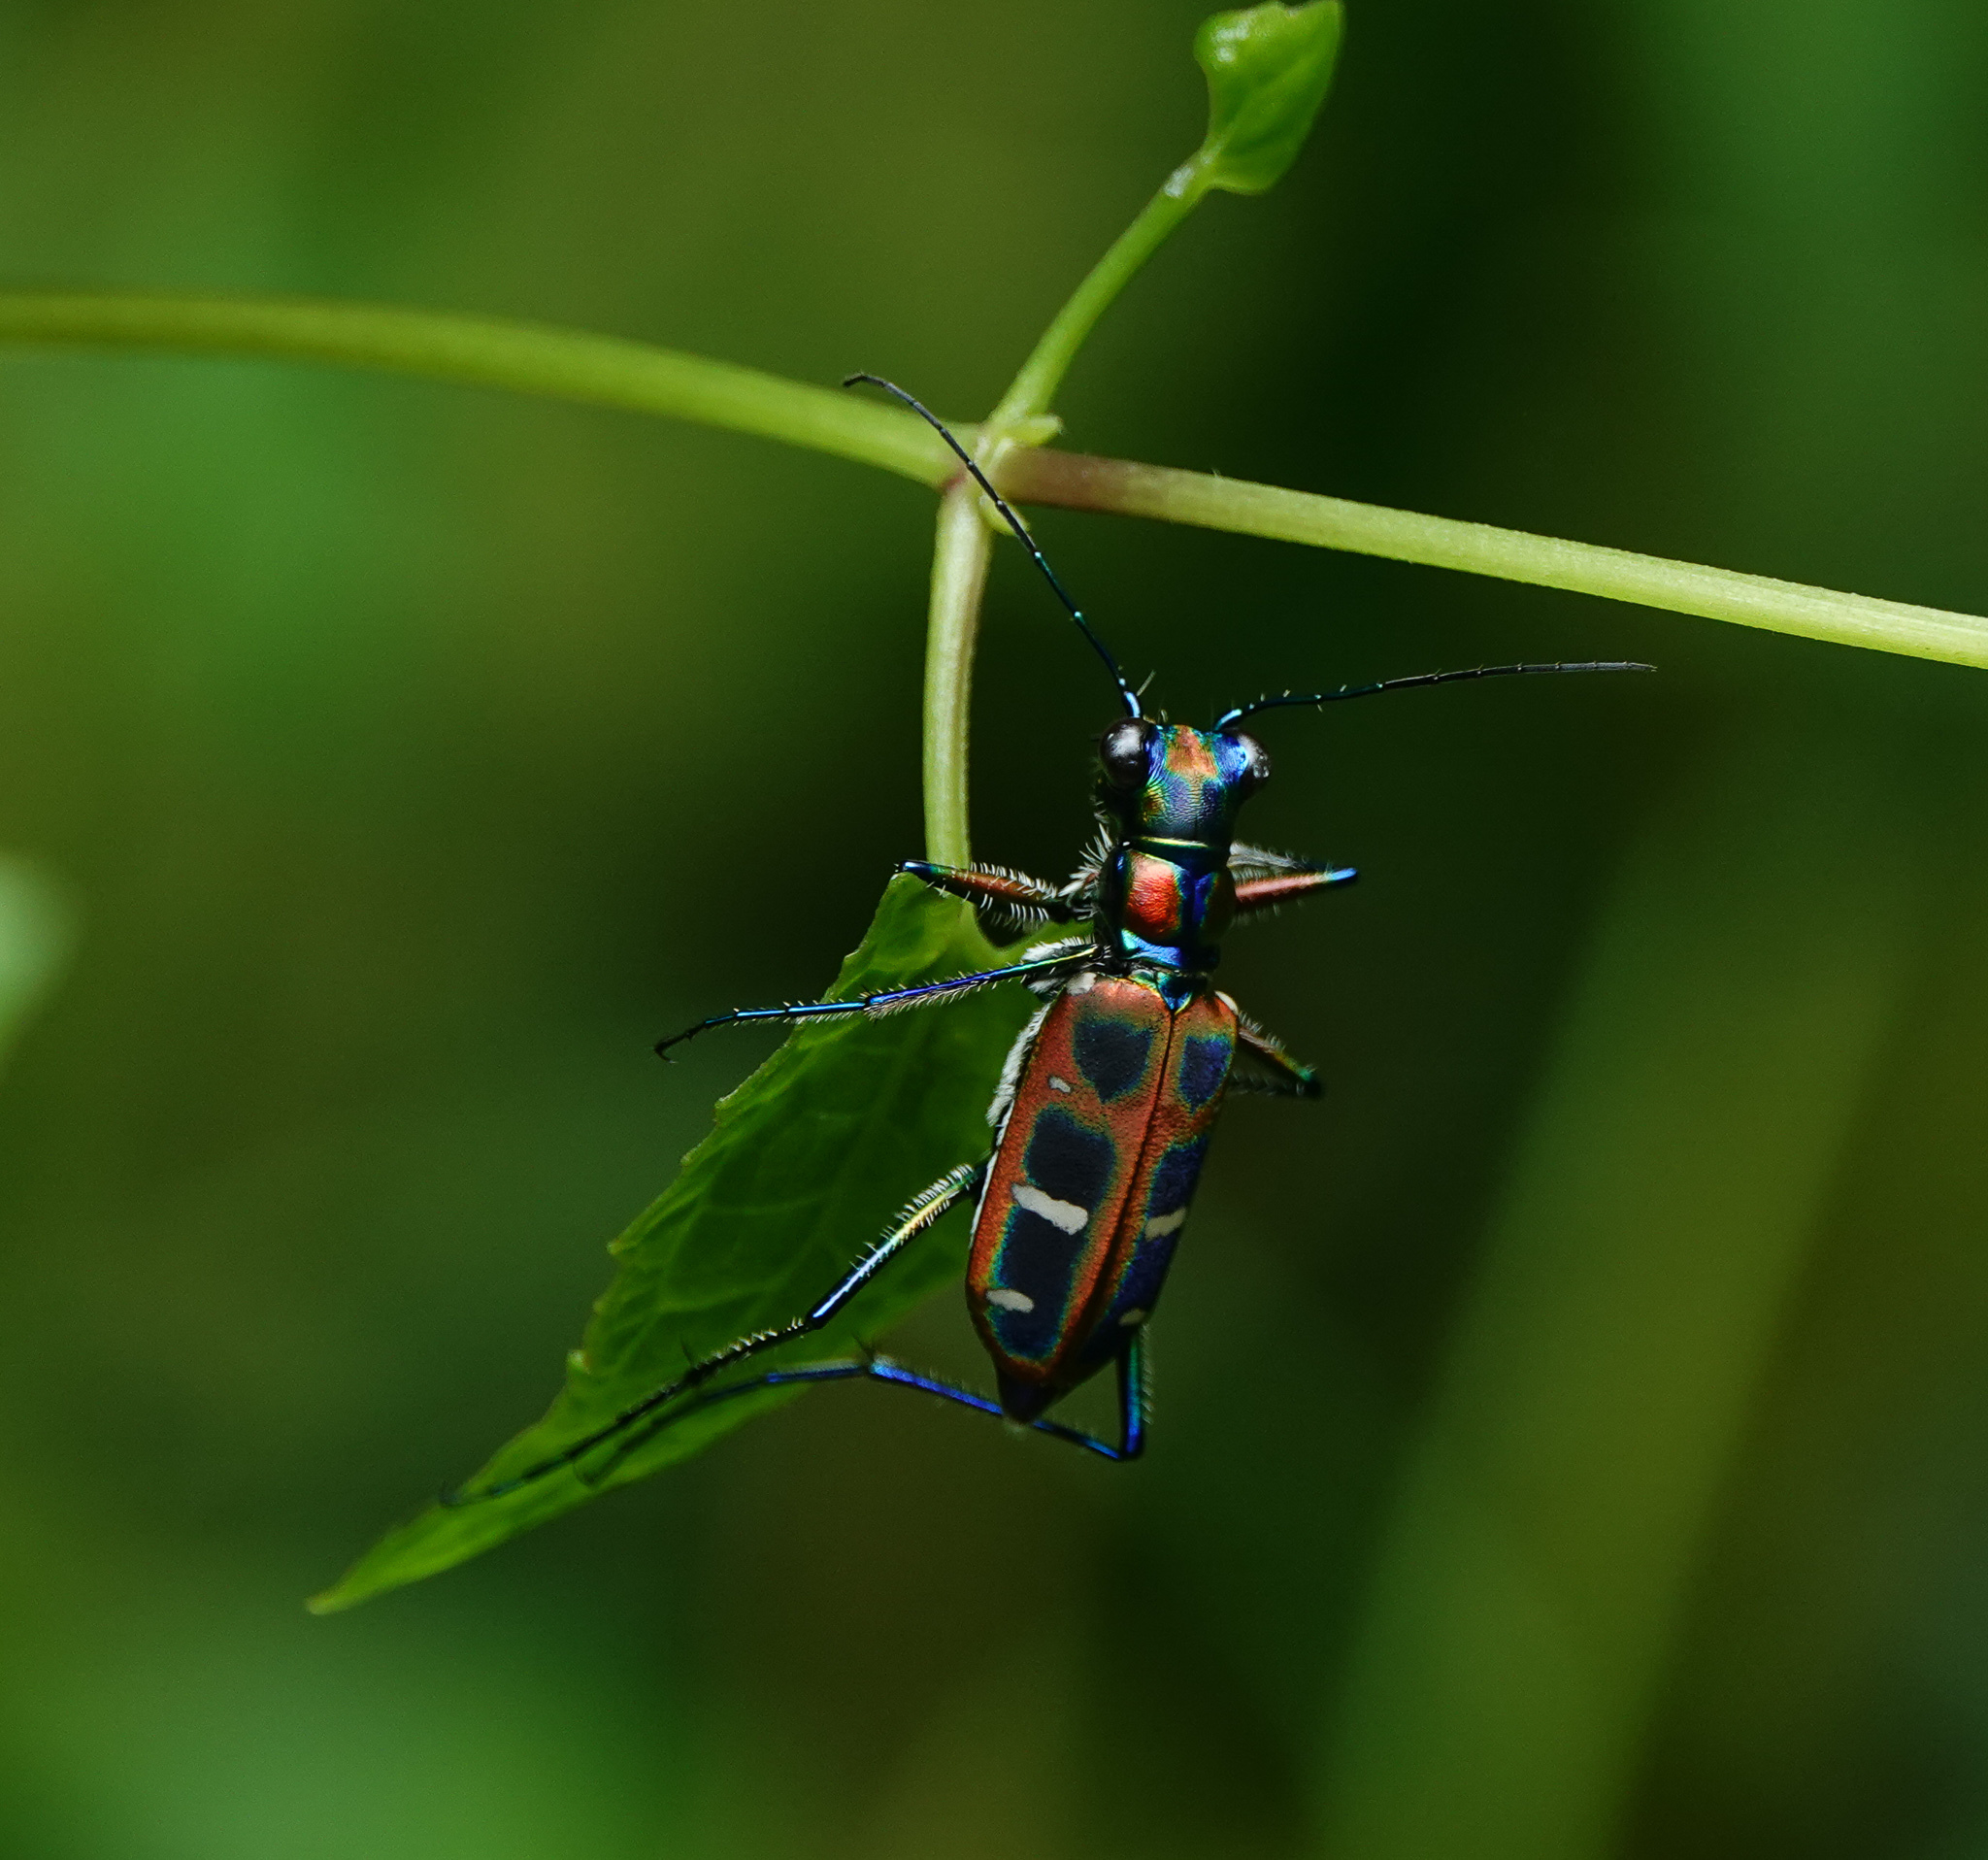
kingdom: Animalia
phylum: Arthropoda
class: Insecta
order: Coleoptera
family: Carabidae
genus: Cicindela
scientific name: Cicindela barmanica
